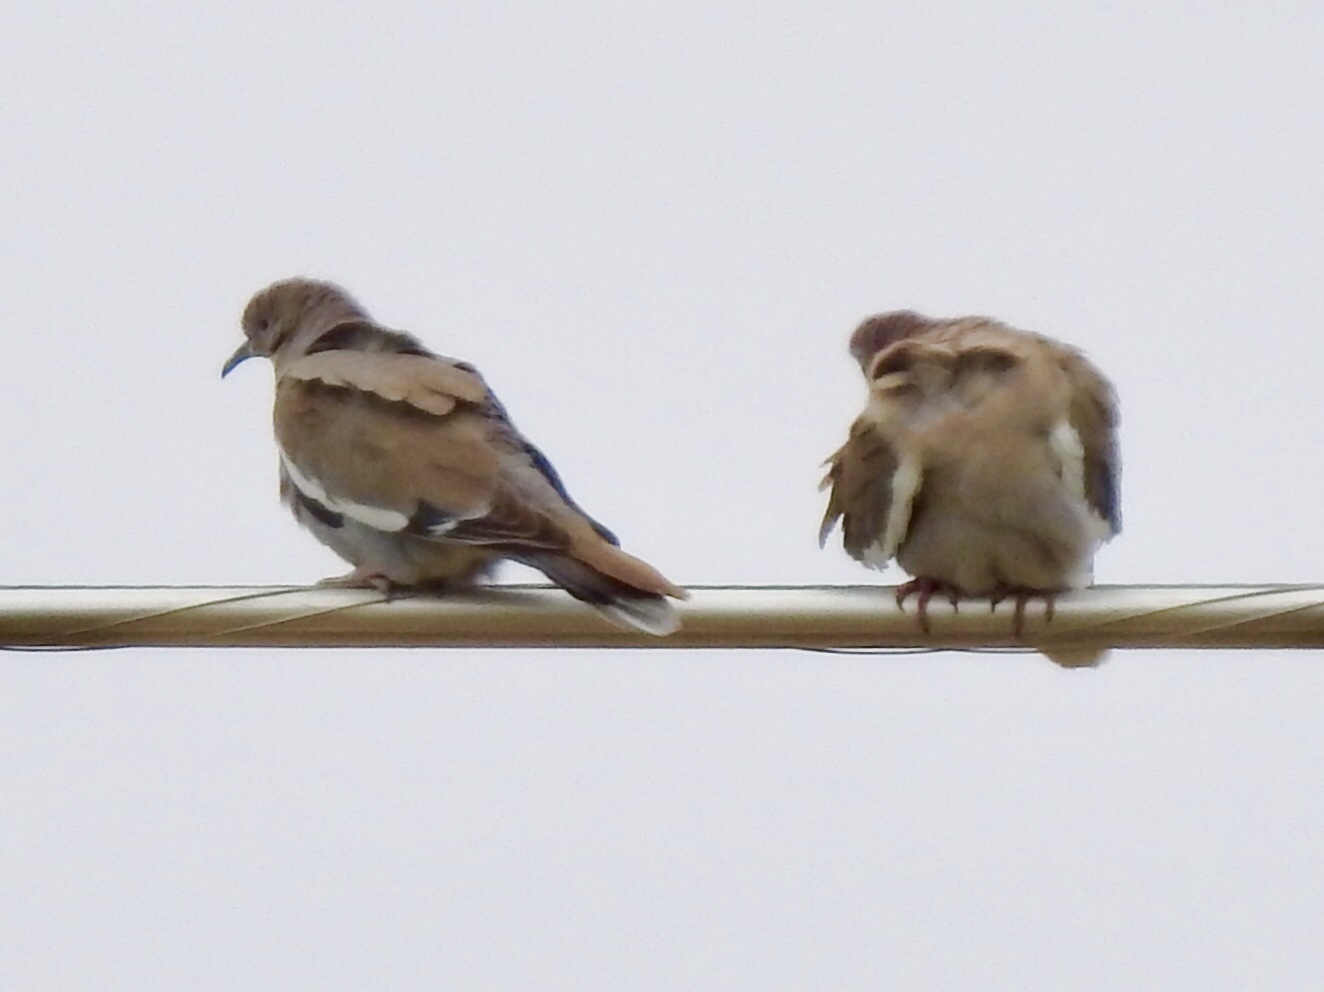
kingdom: Animalia
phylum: Chordata
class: Aves
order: Columbiformes
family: Columbidae
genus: Zenaida
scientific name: Zenaida asiatica
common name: White-winged dove
